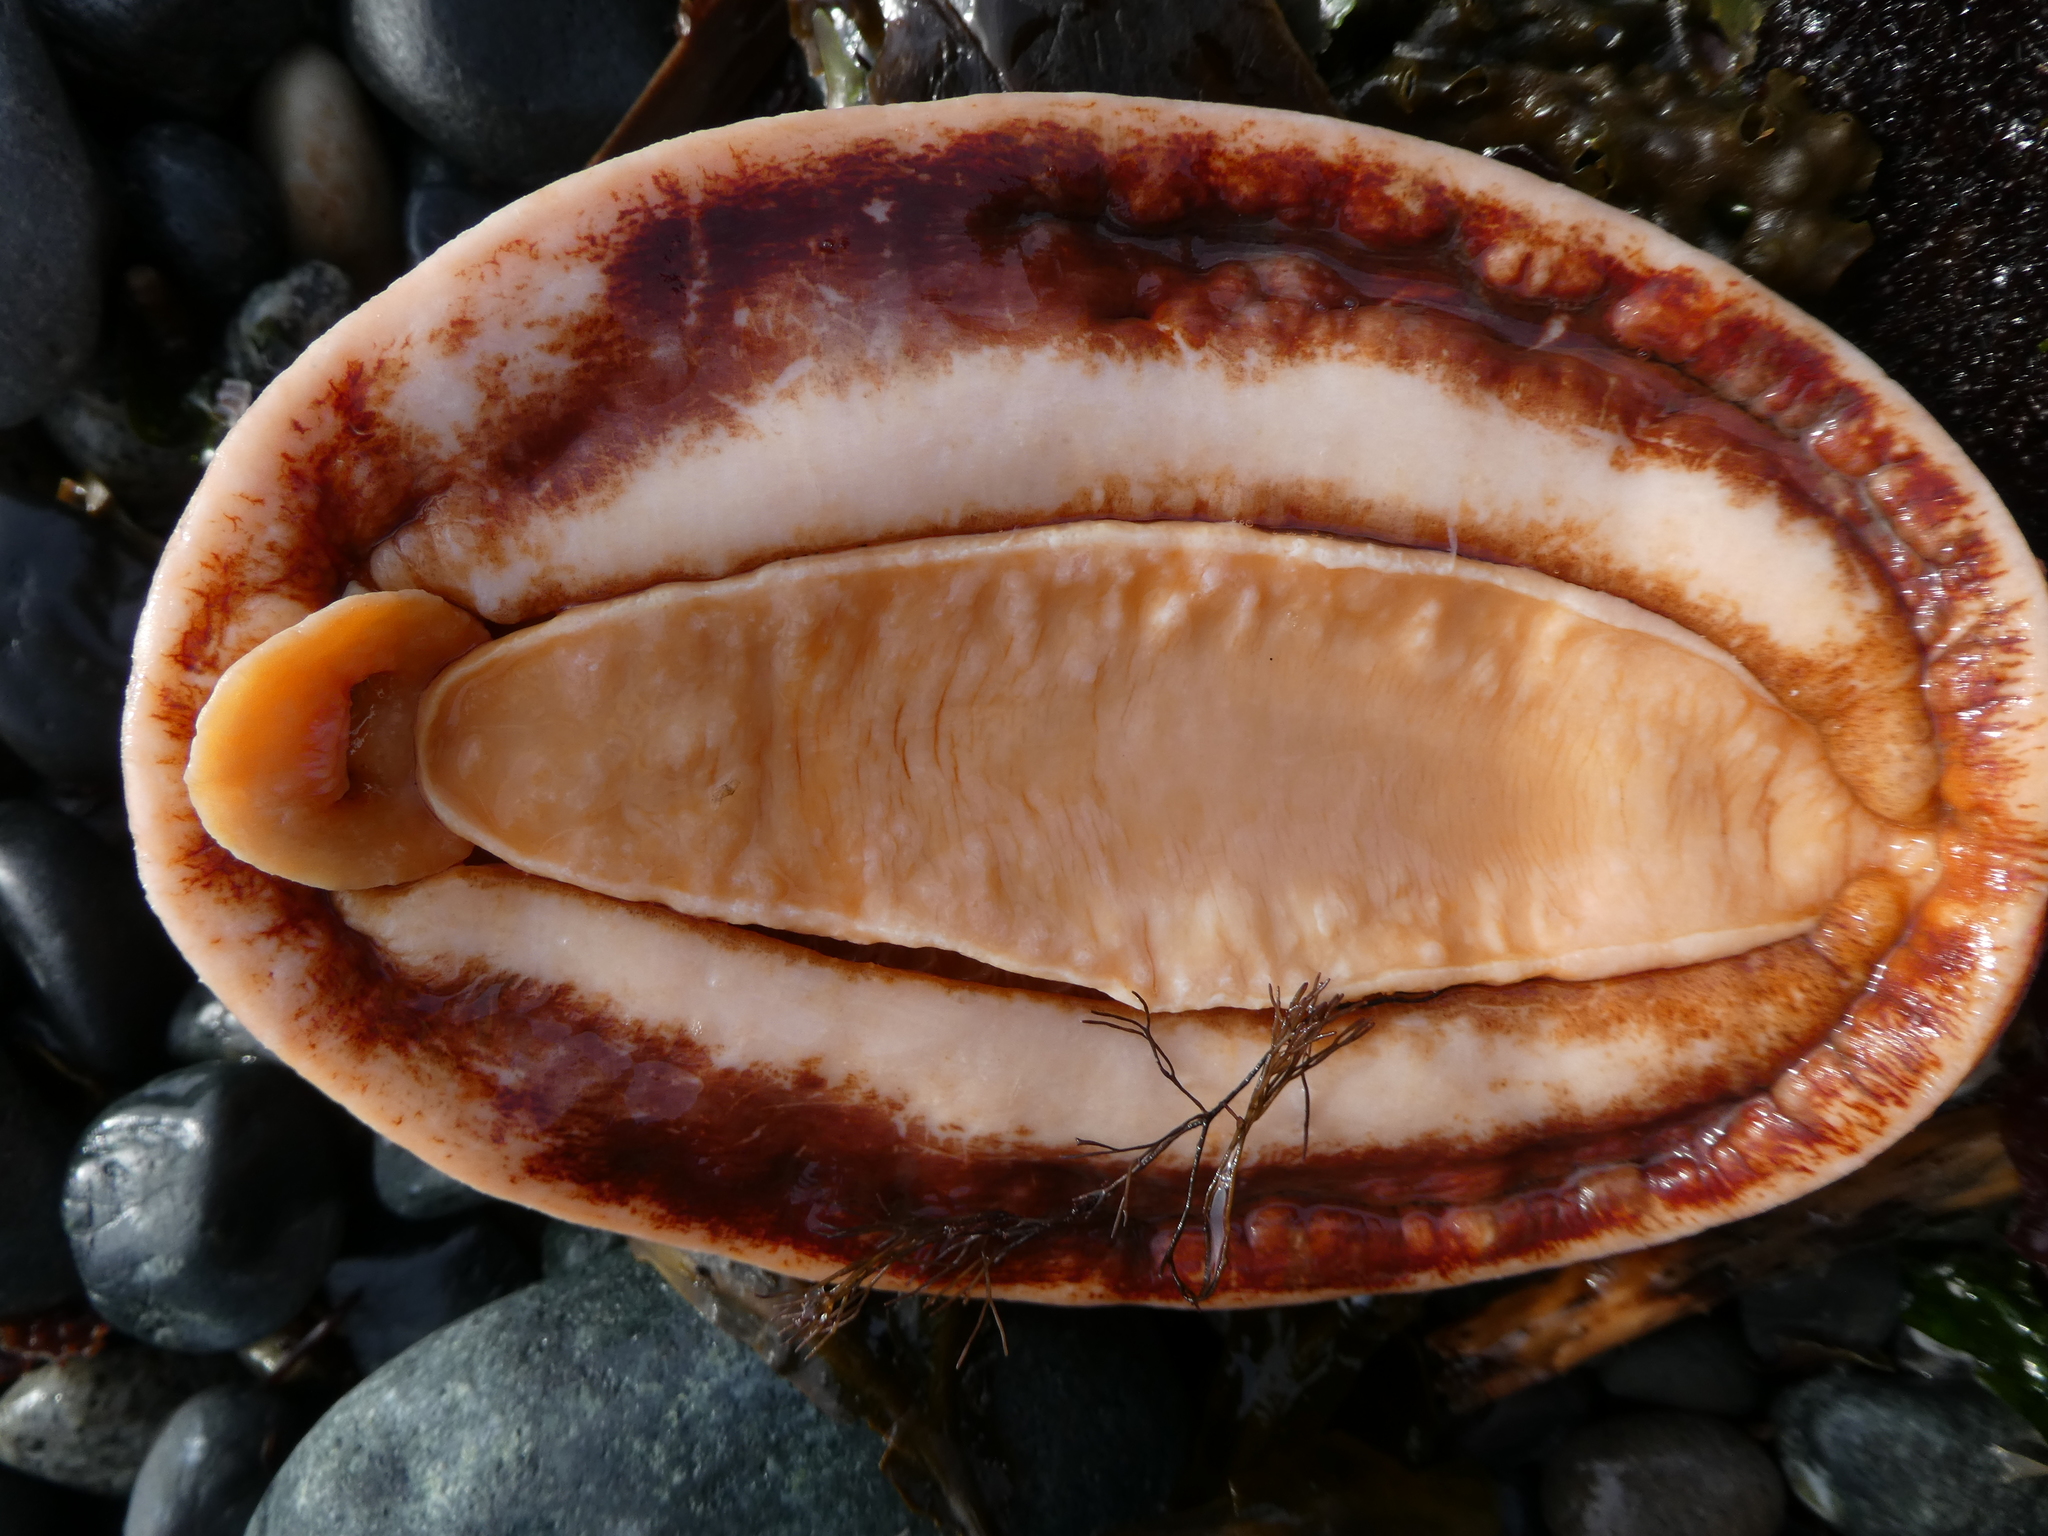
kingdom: Animalia
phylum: Mollusca
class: Polyplacophora
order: Chitonida
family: Acanthochitonidae
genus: Cryptochiton
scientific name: Cryptochiton stelleri
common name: Giant pacific chiton
